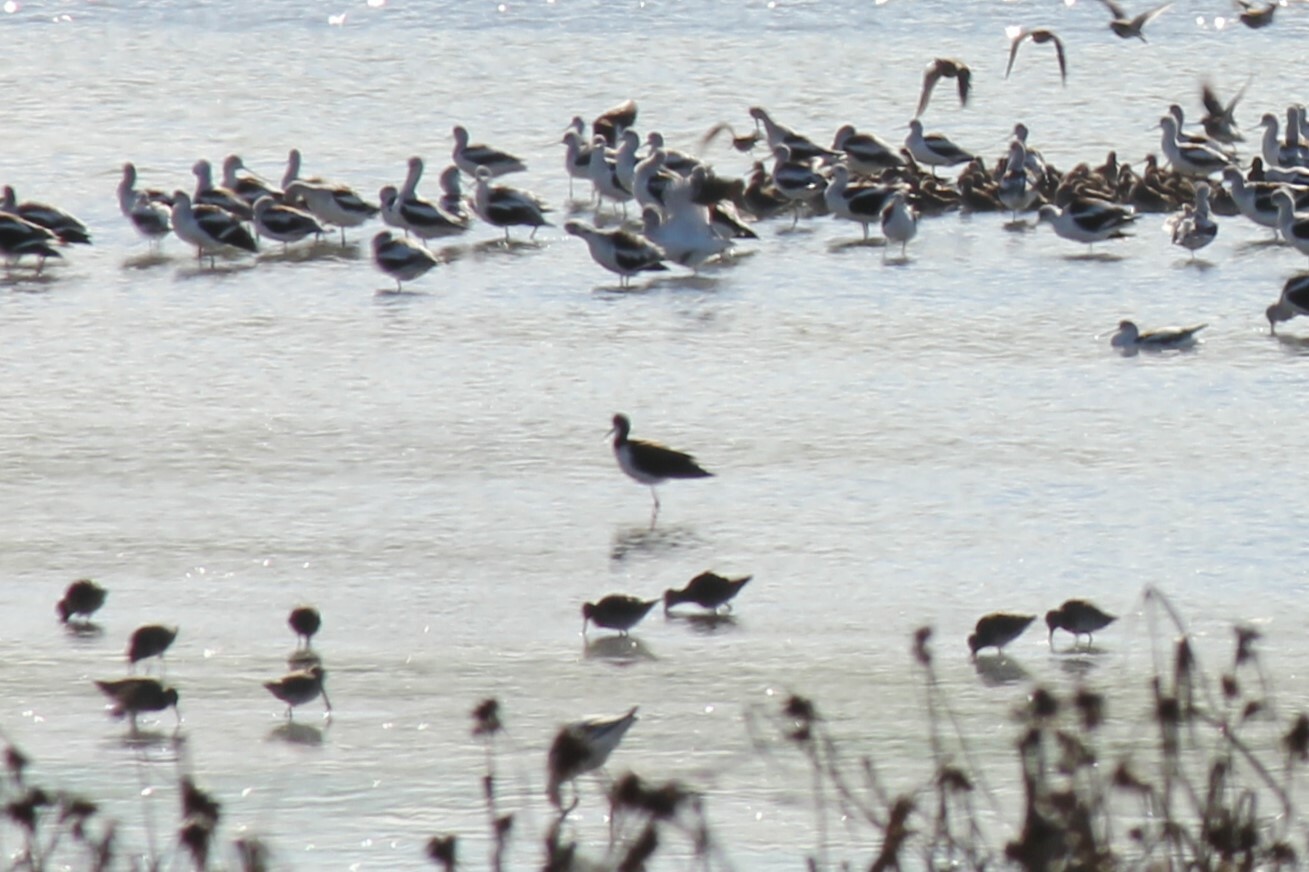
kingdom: Animalia
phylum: Chordata
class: Aves
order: Charadriiformes
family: Recurvirostridae
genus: Himantopus
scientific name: Himantopus mexicanus
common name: Black-necked stilt
